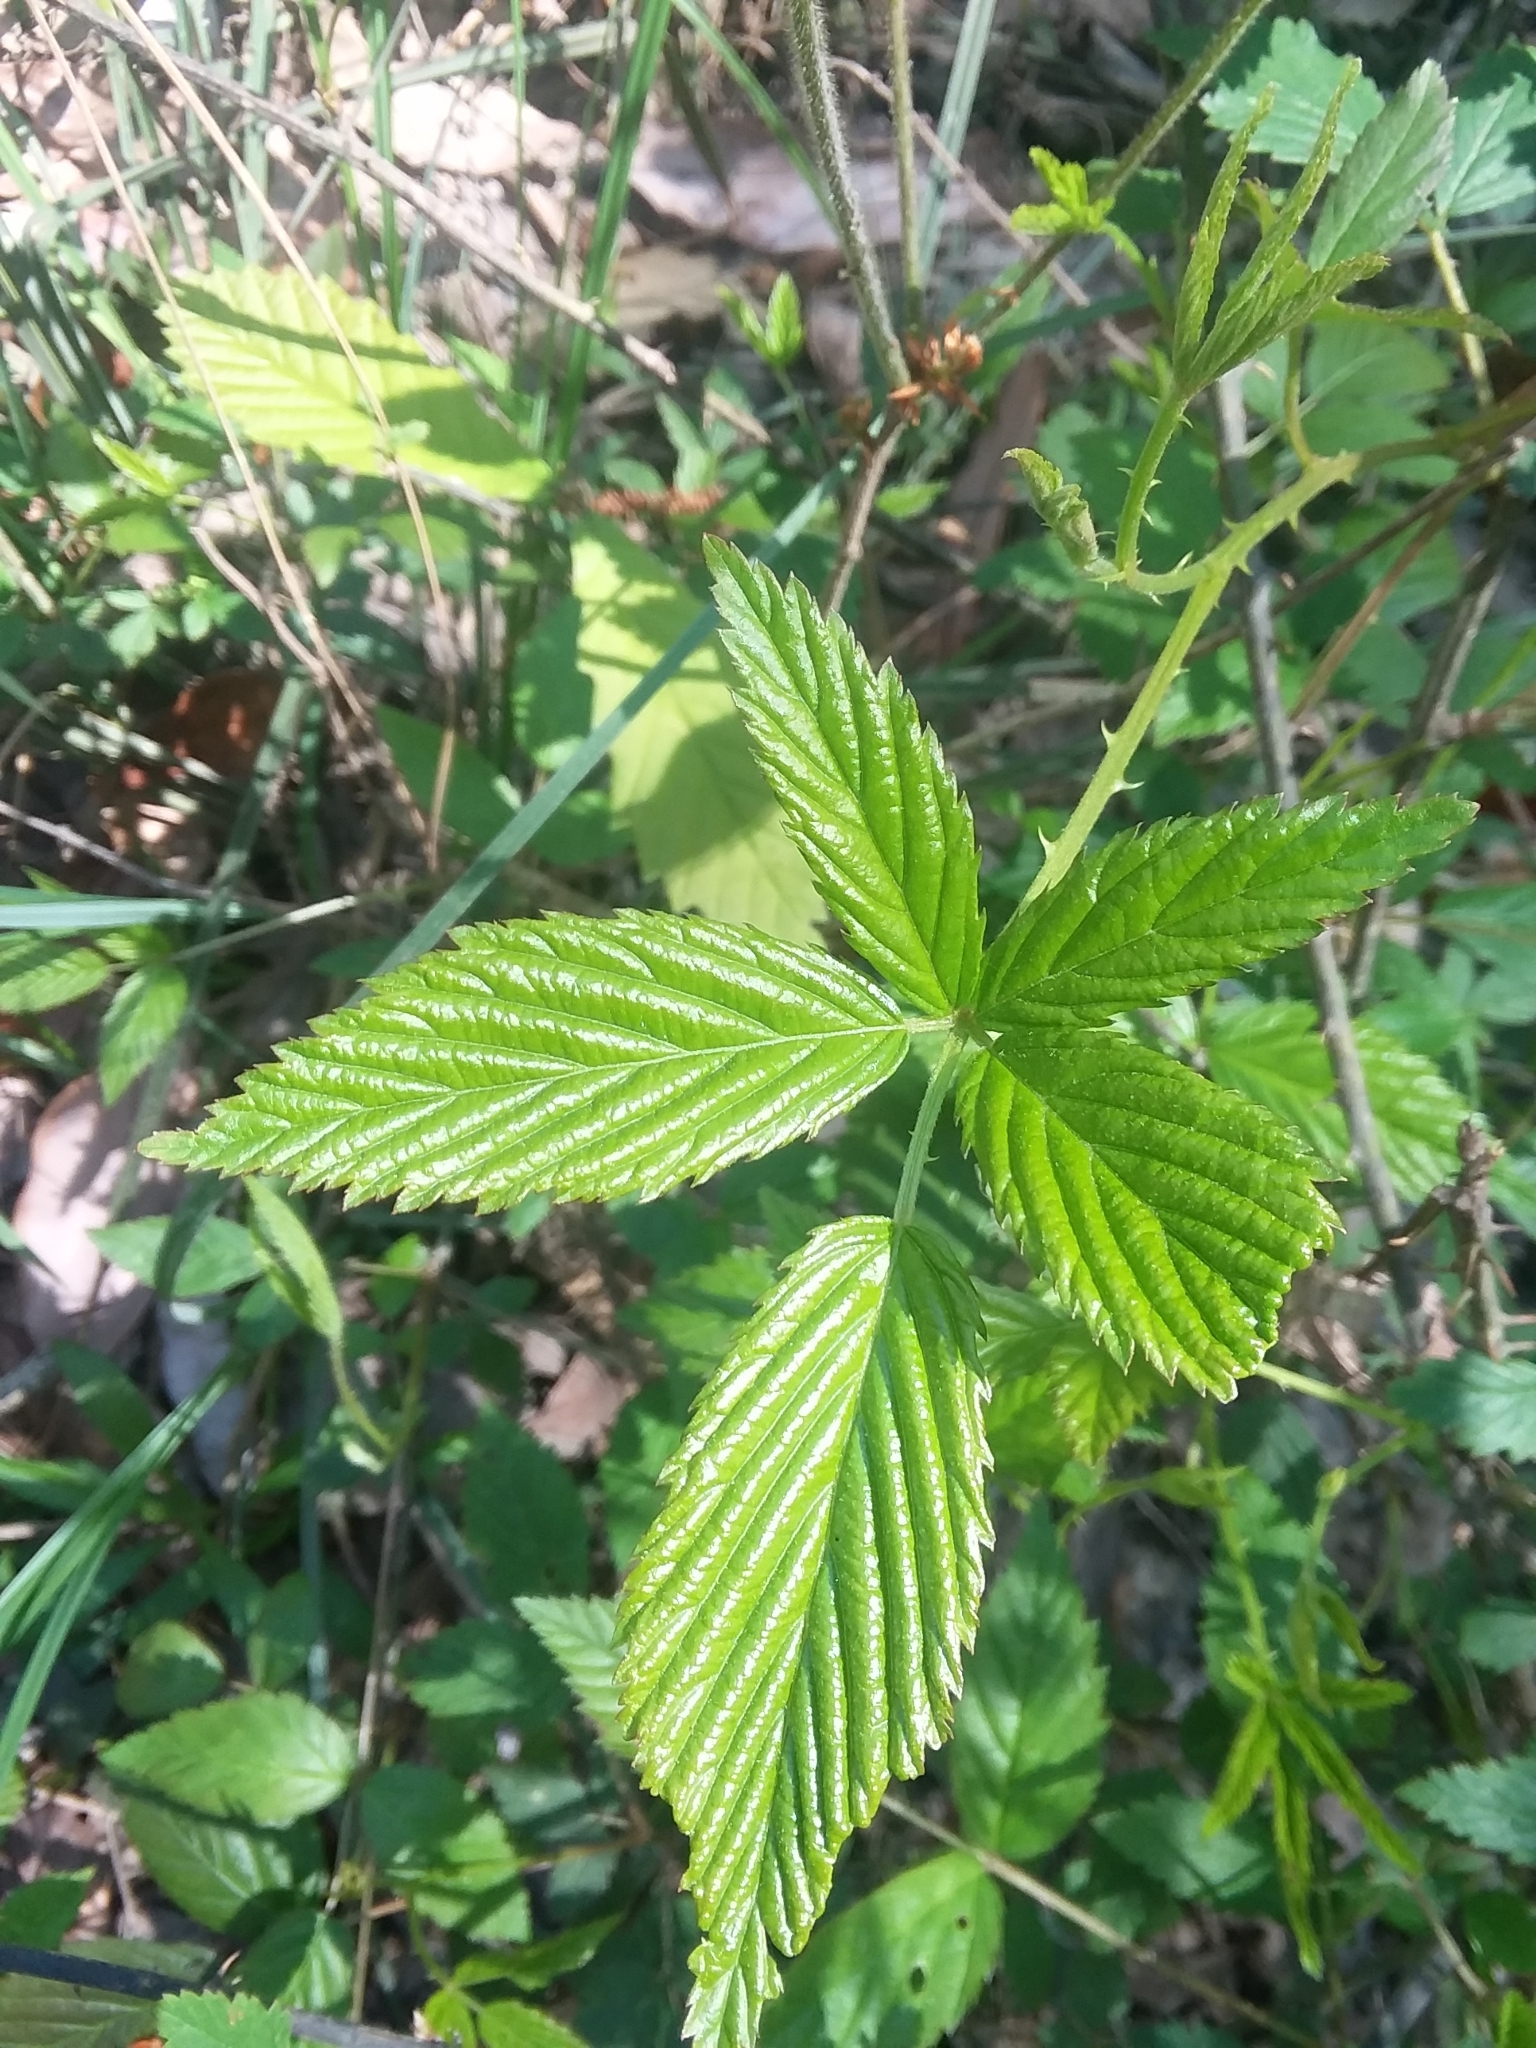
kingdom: Plantae
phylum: Tracheophyta
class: Magnoliopsida
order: Rosales
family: Rosaceae
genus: Rubus
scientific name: Rubus pensilvanicus
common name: Pennsylvania blackberry
